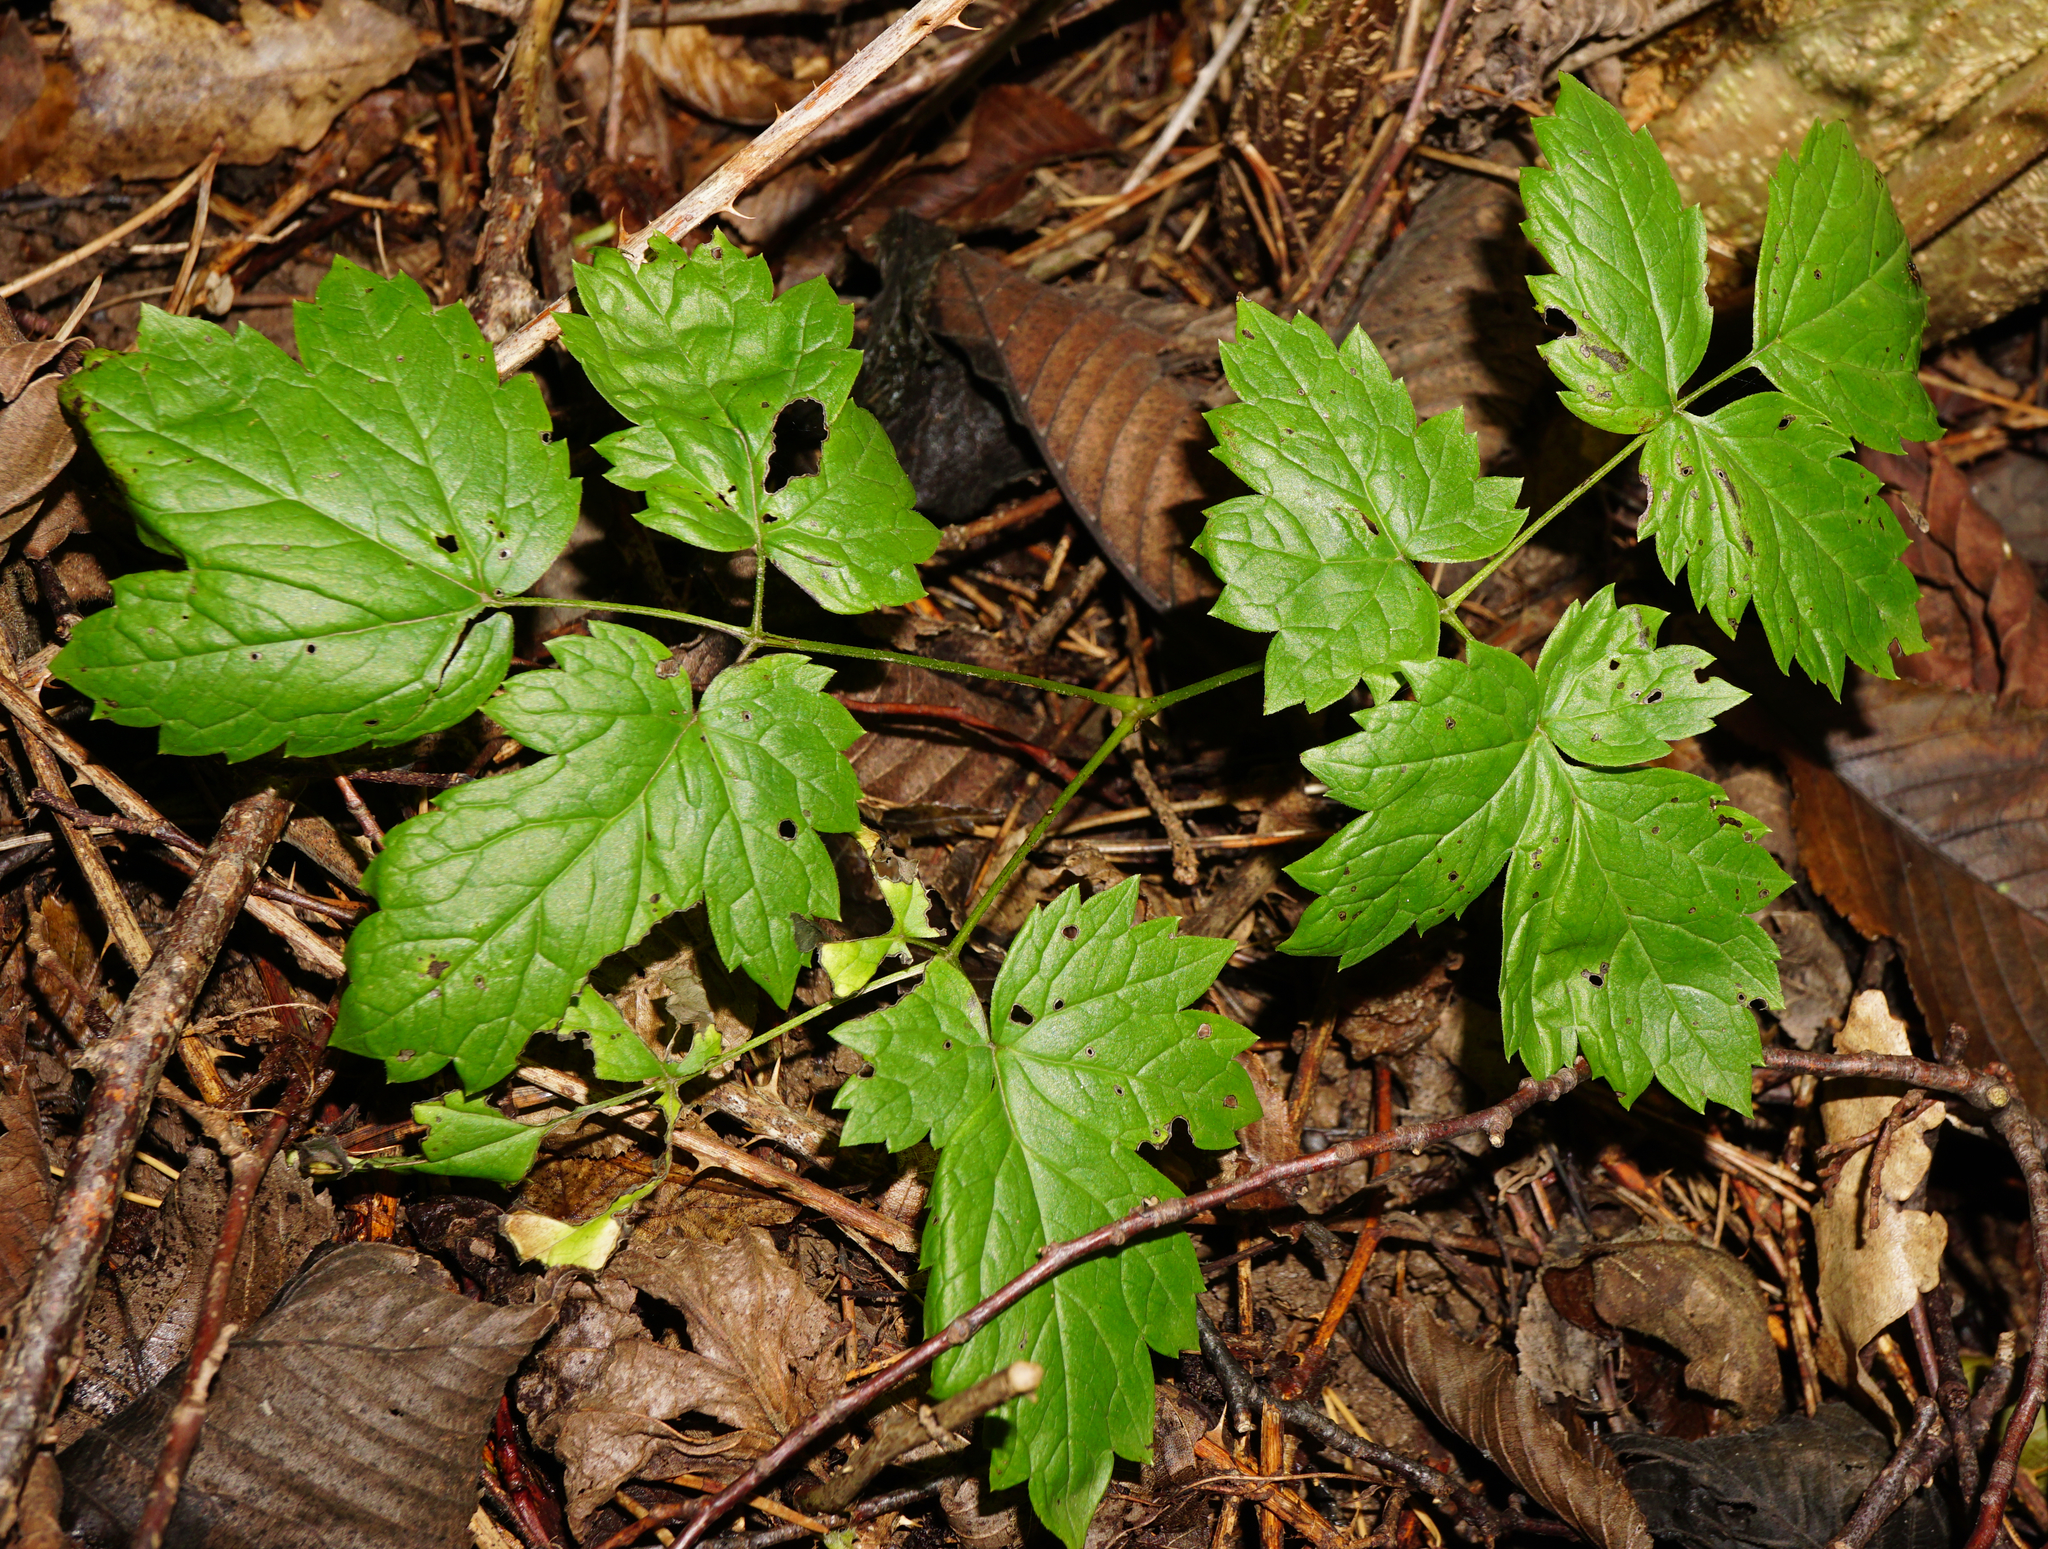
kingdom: Plantae
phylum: Tracheophyta
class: Magnoliopsida
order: Ranunculales
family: Ranunculaceae
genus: Actaea
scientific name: Actaea spicata
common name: Baneberry
